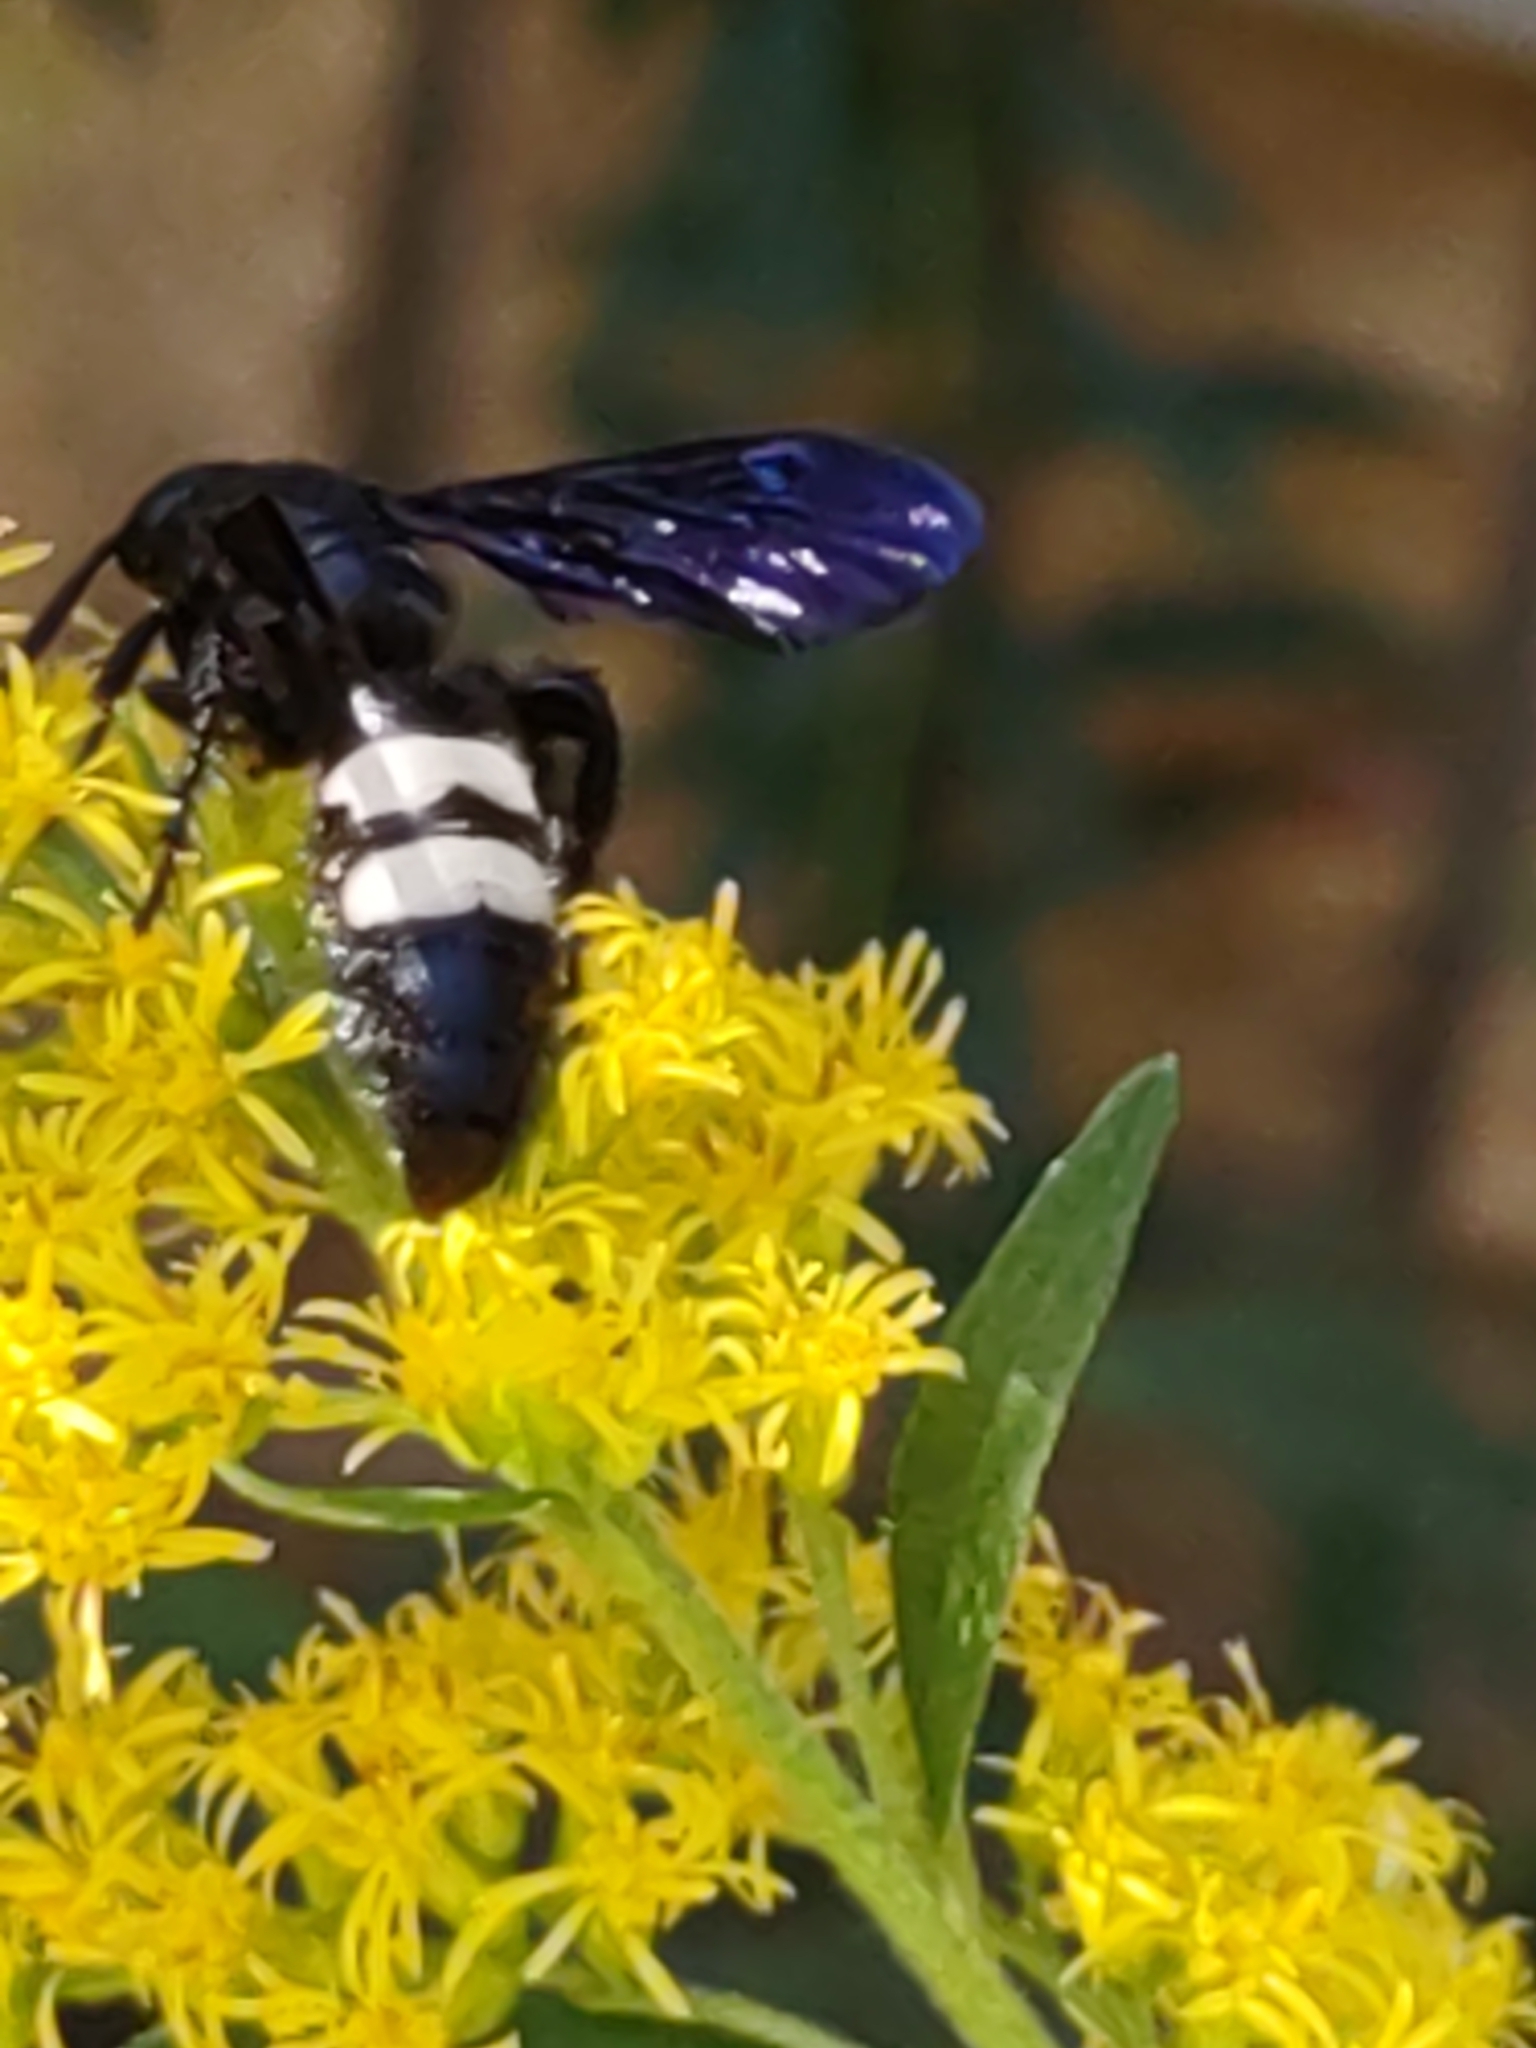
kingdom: Animalia
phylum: Arthropoda
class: Insecta
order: Hymenoptera
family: Scoliidae
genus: Scolia
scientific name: Scolia bicincta
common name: Double-banded scoliid wasp
